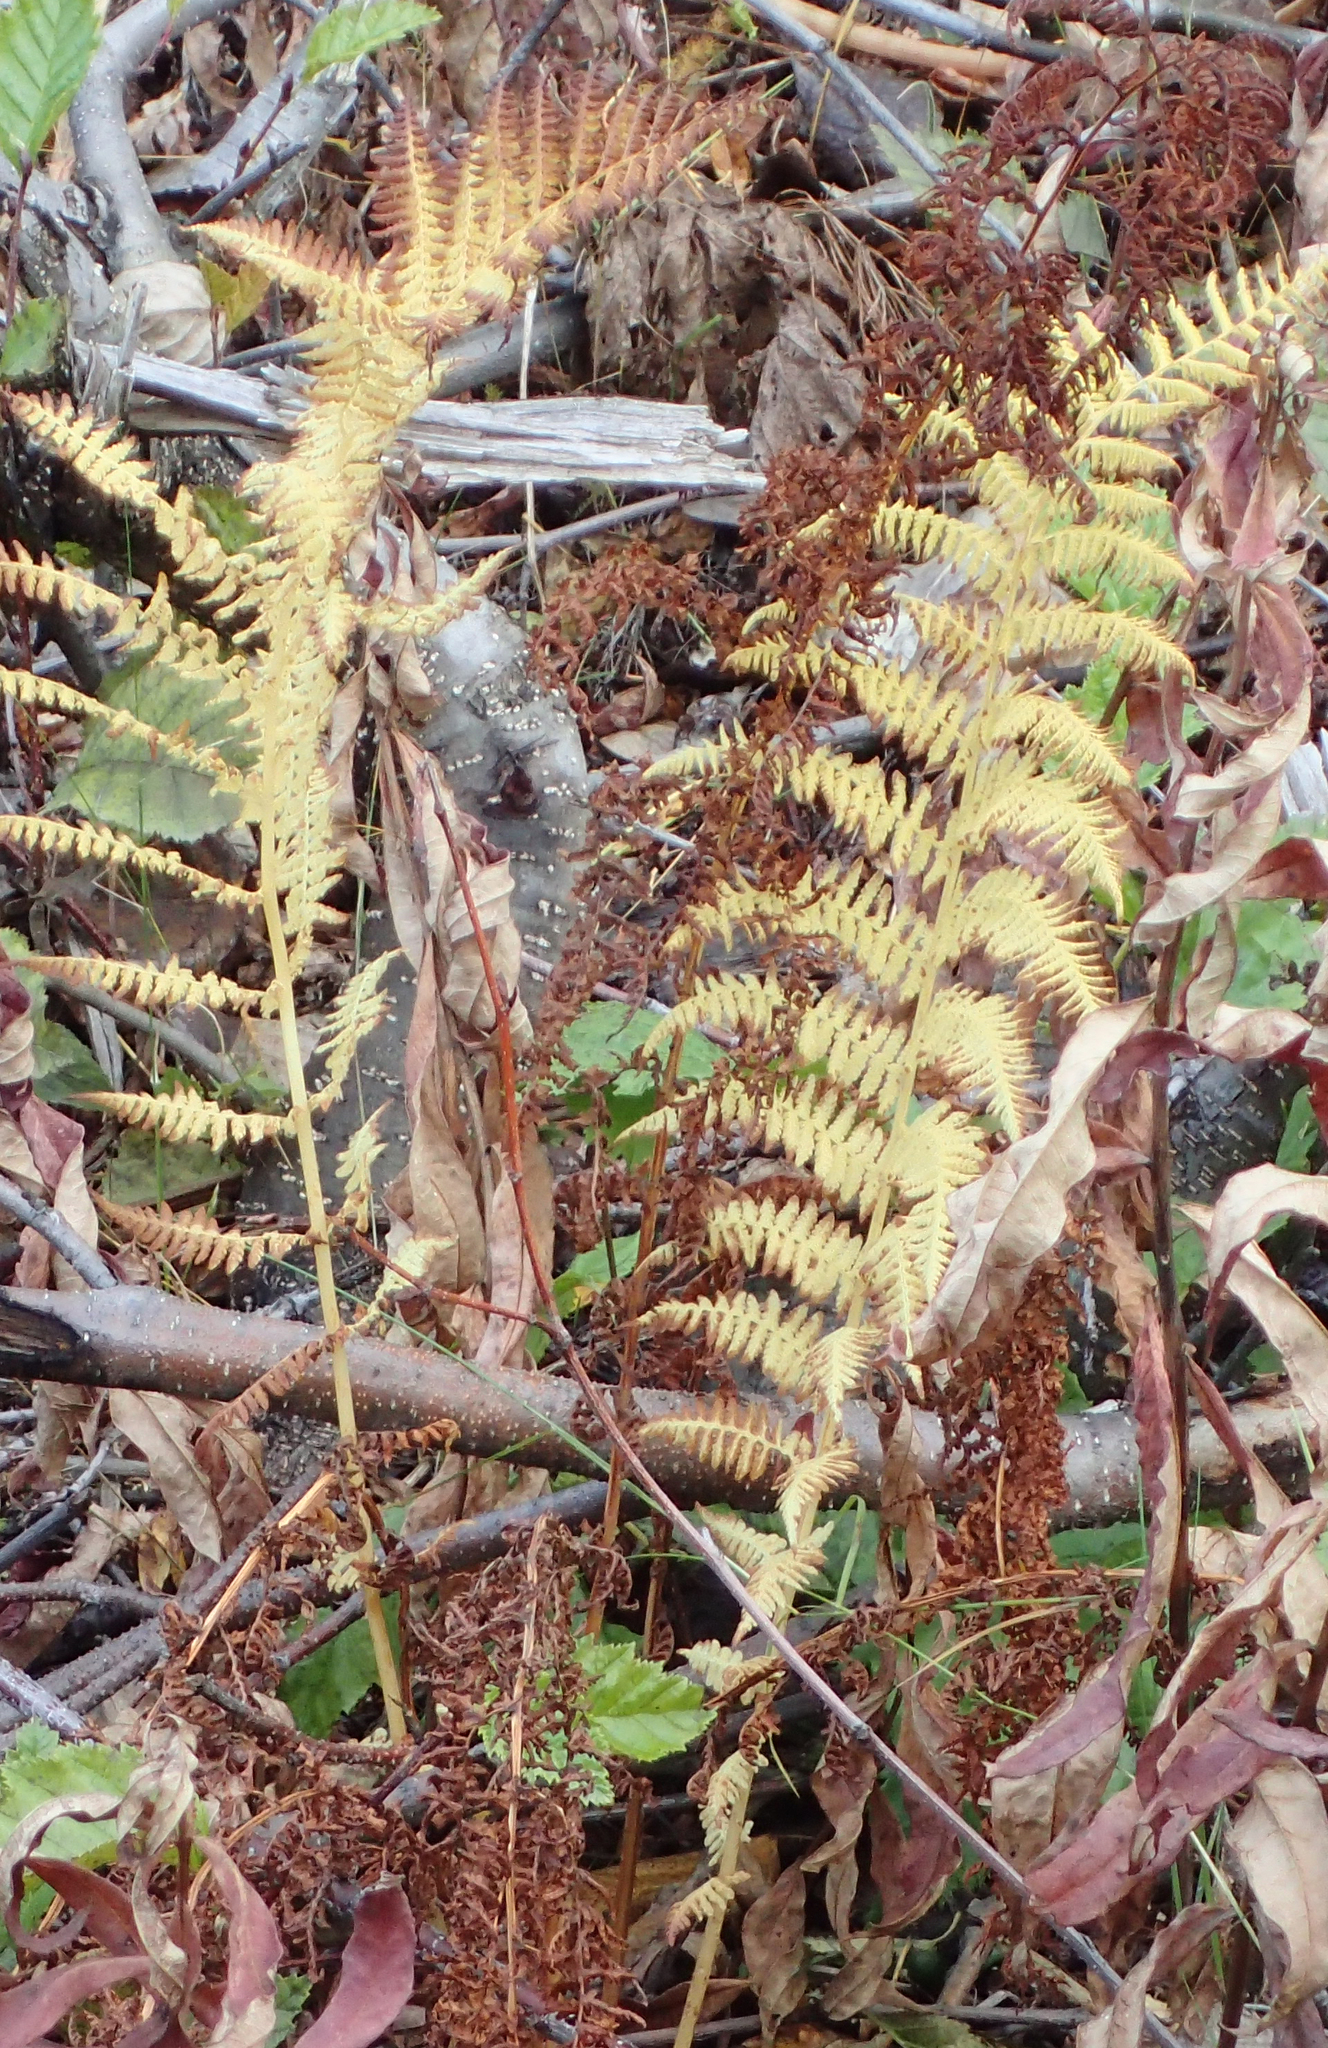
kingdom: Plantae
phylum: Tracheophyta
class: Polypodiopsida
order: Polypodiales
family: Athyriaceae
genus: Athyrium
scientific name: Athyrium filix-femina
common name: Lady fern
